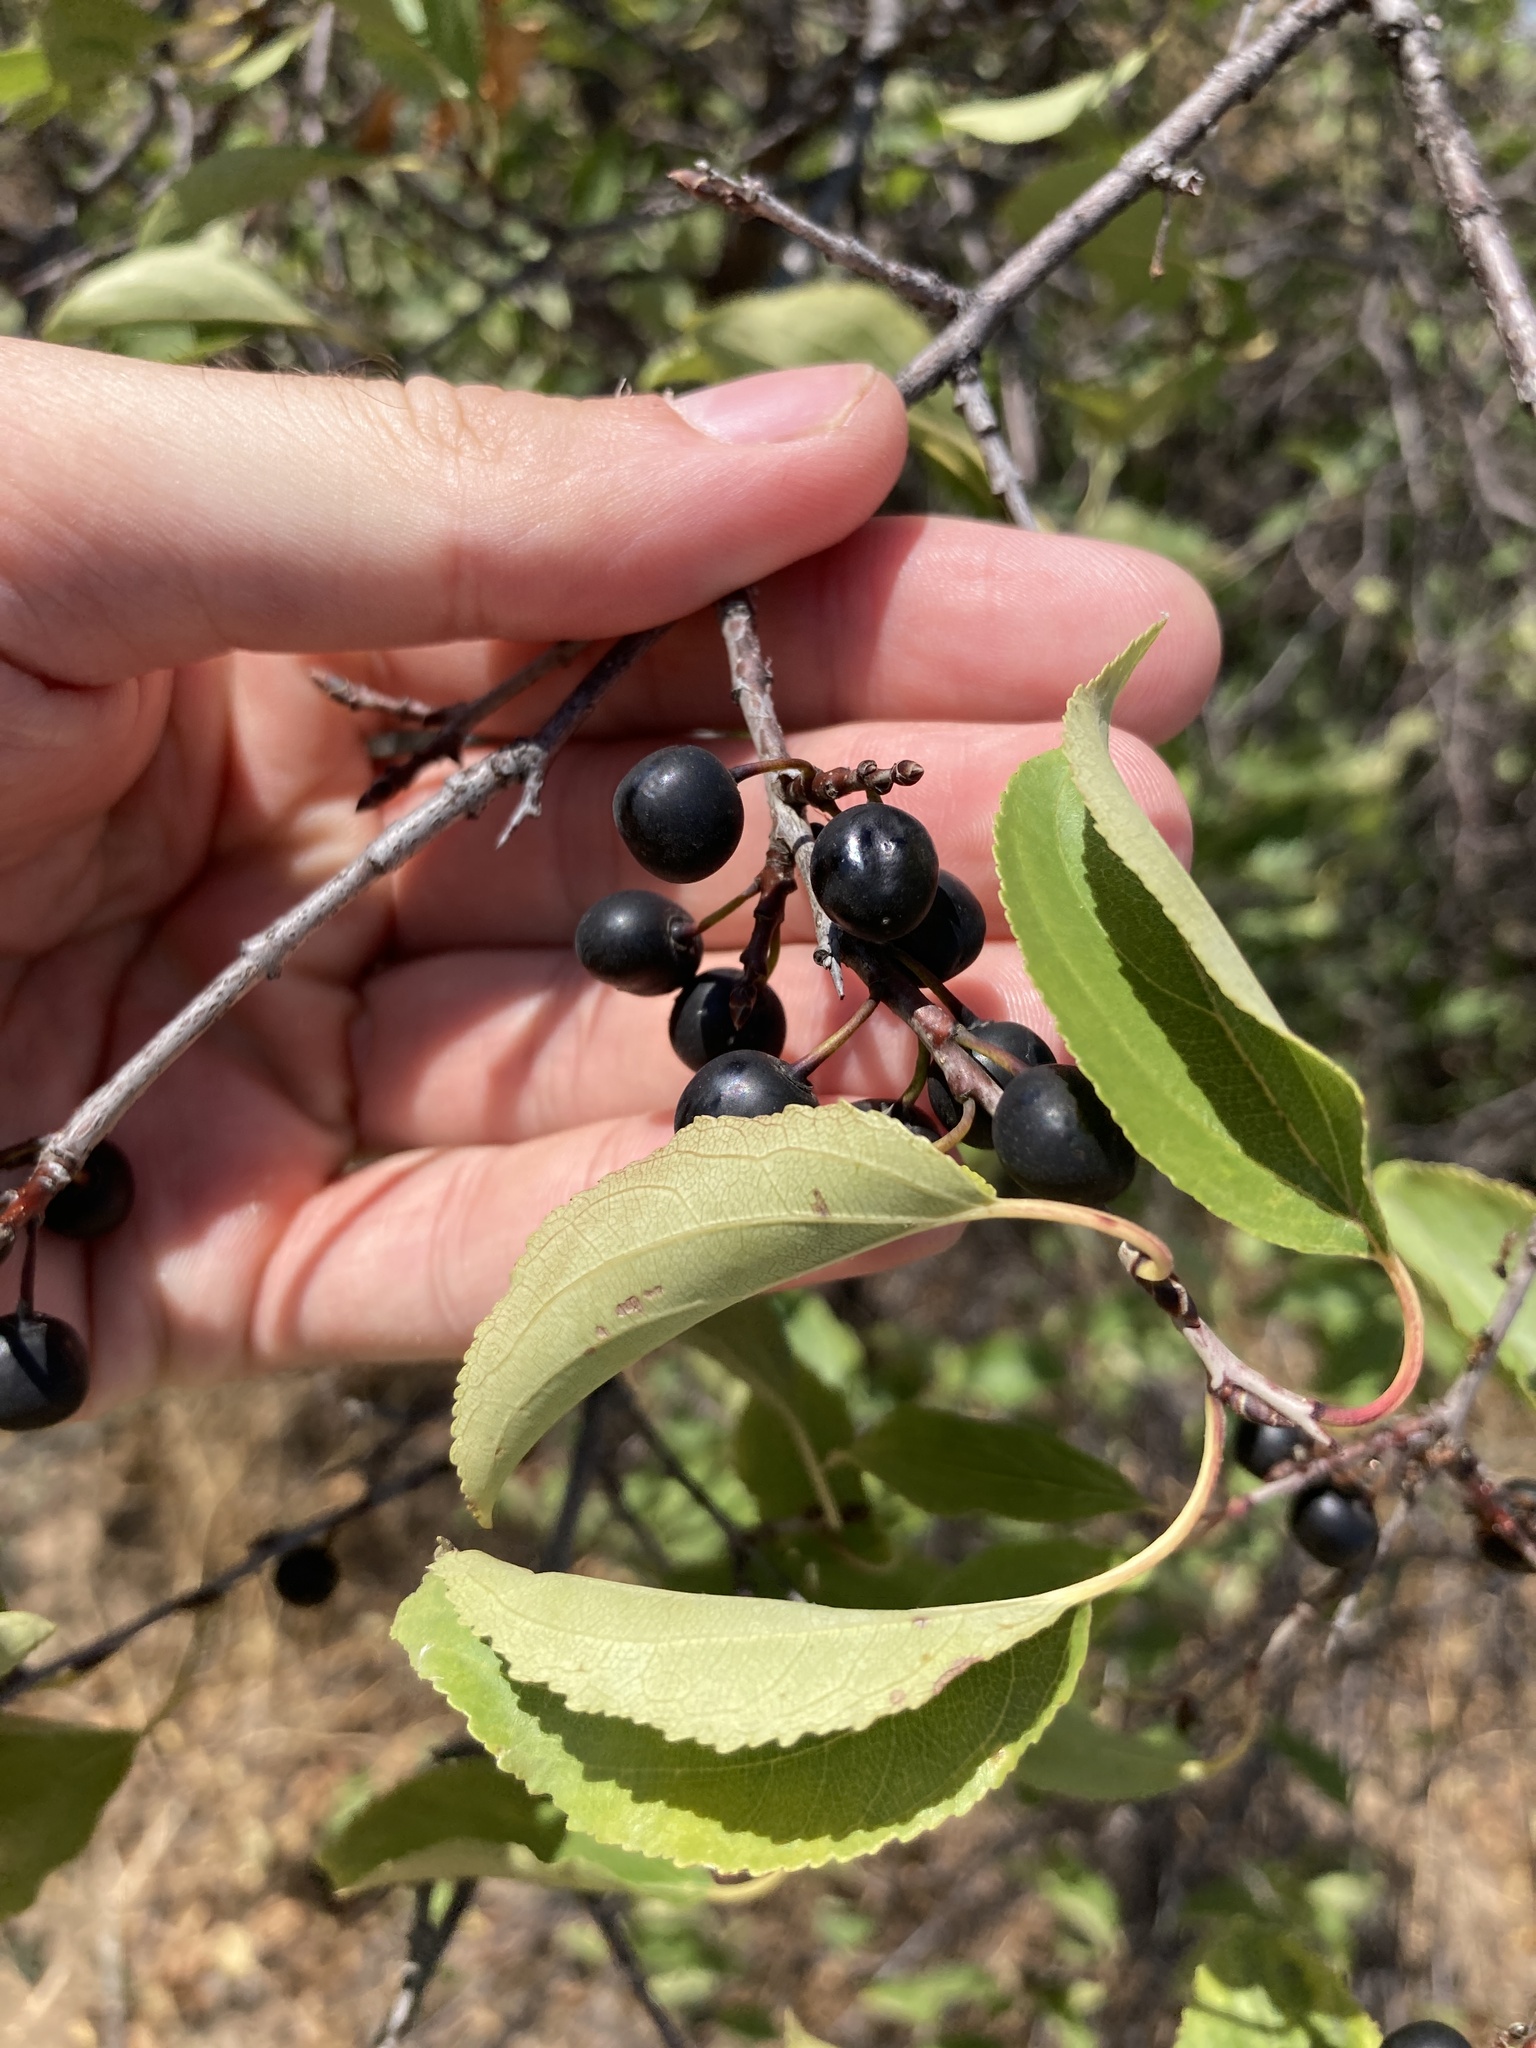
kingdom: Plantae
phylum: Tracheophyta
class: Magnoliopsida
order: Rosales
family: Rhamnaceae
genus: Rhamnus
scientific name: Rhamnus cathartica
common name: Common buckthorn
